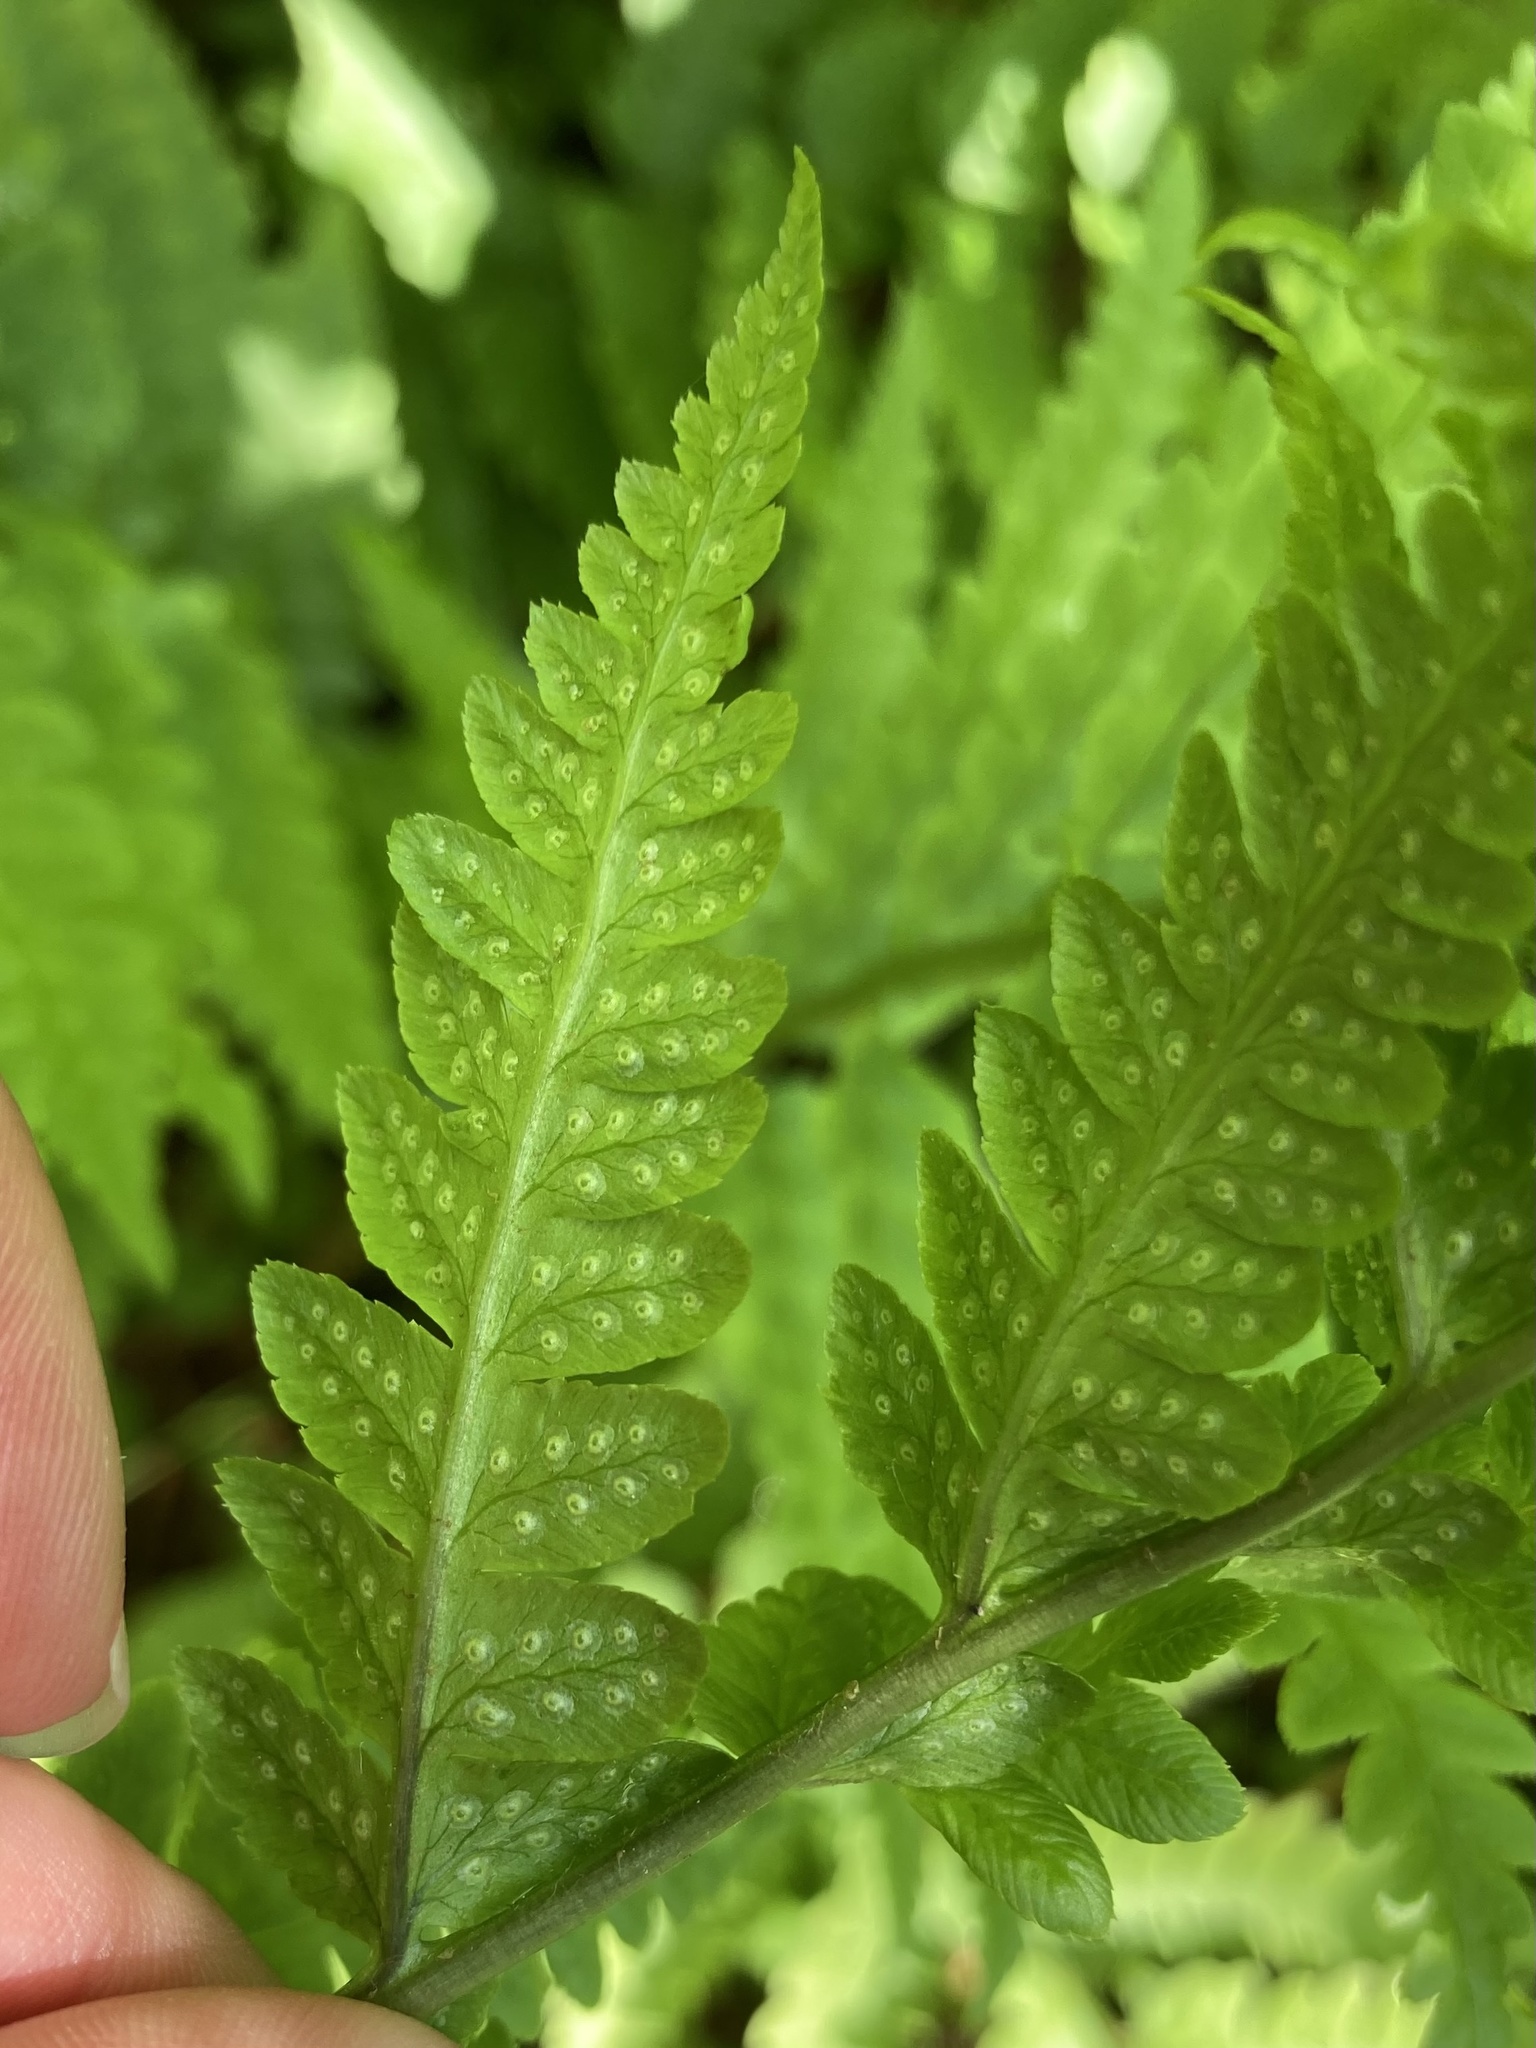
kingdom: Plantae
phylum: Tracheophyta
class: Polypodiopsida
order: Polypodiales
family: Dryopteridaceae
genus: Dryopteris
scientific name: Dryopteris cristata
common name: Crested wood fern
